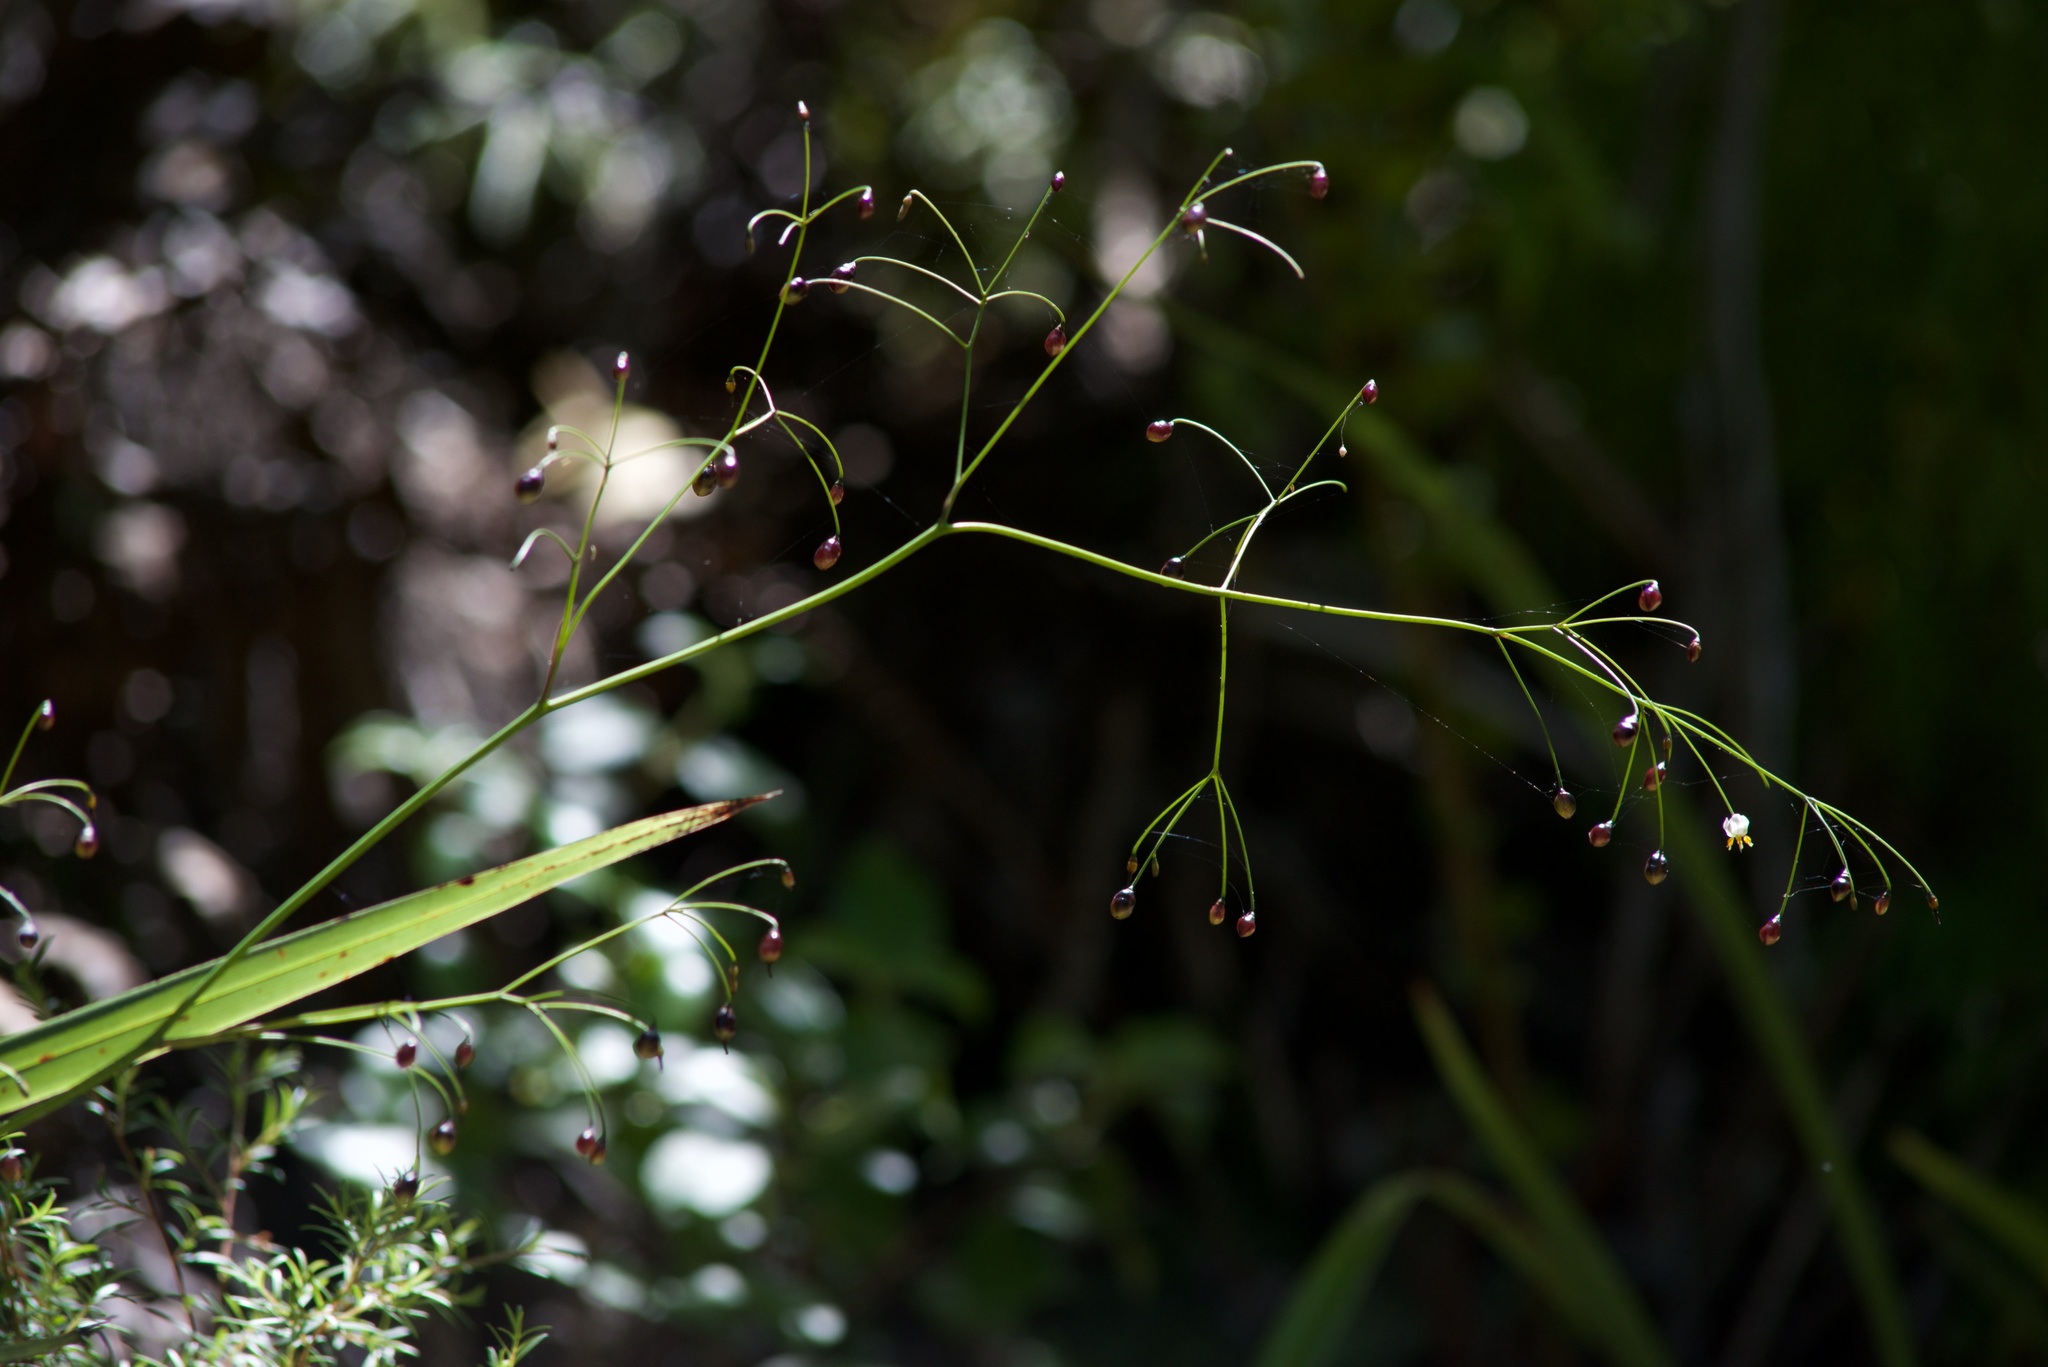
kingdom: Plantae
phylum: Tracheophyta
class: Liliopsida
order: Asparagales
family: Asphodelaceae
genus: Dianella
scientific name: Dianella nigra
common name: New zealand-blueberry
